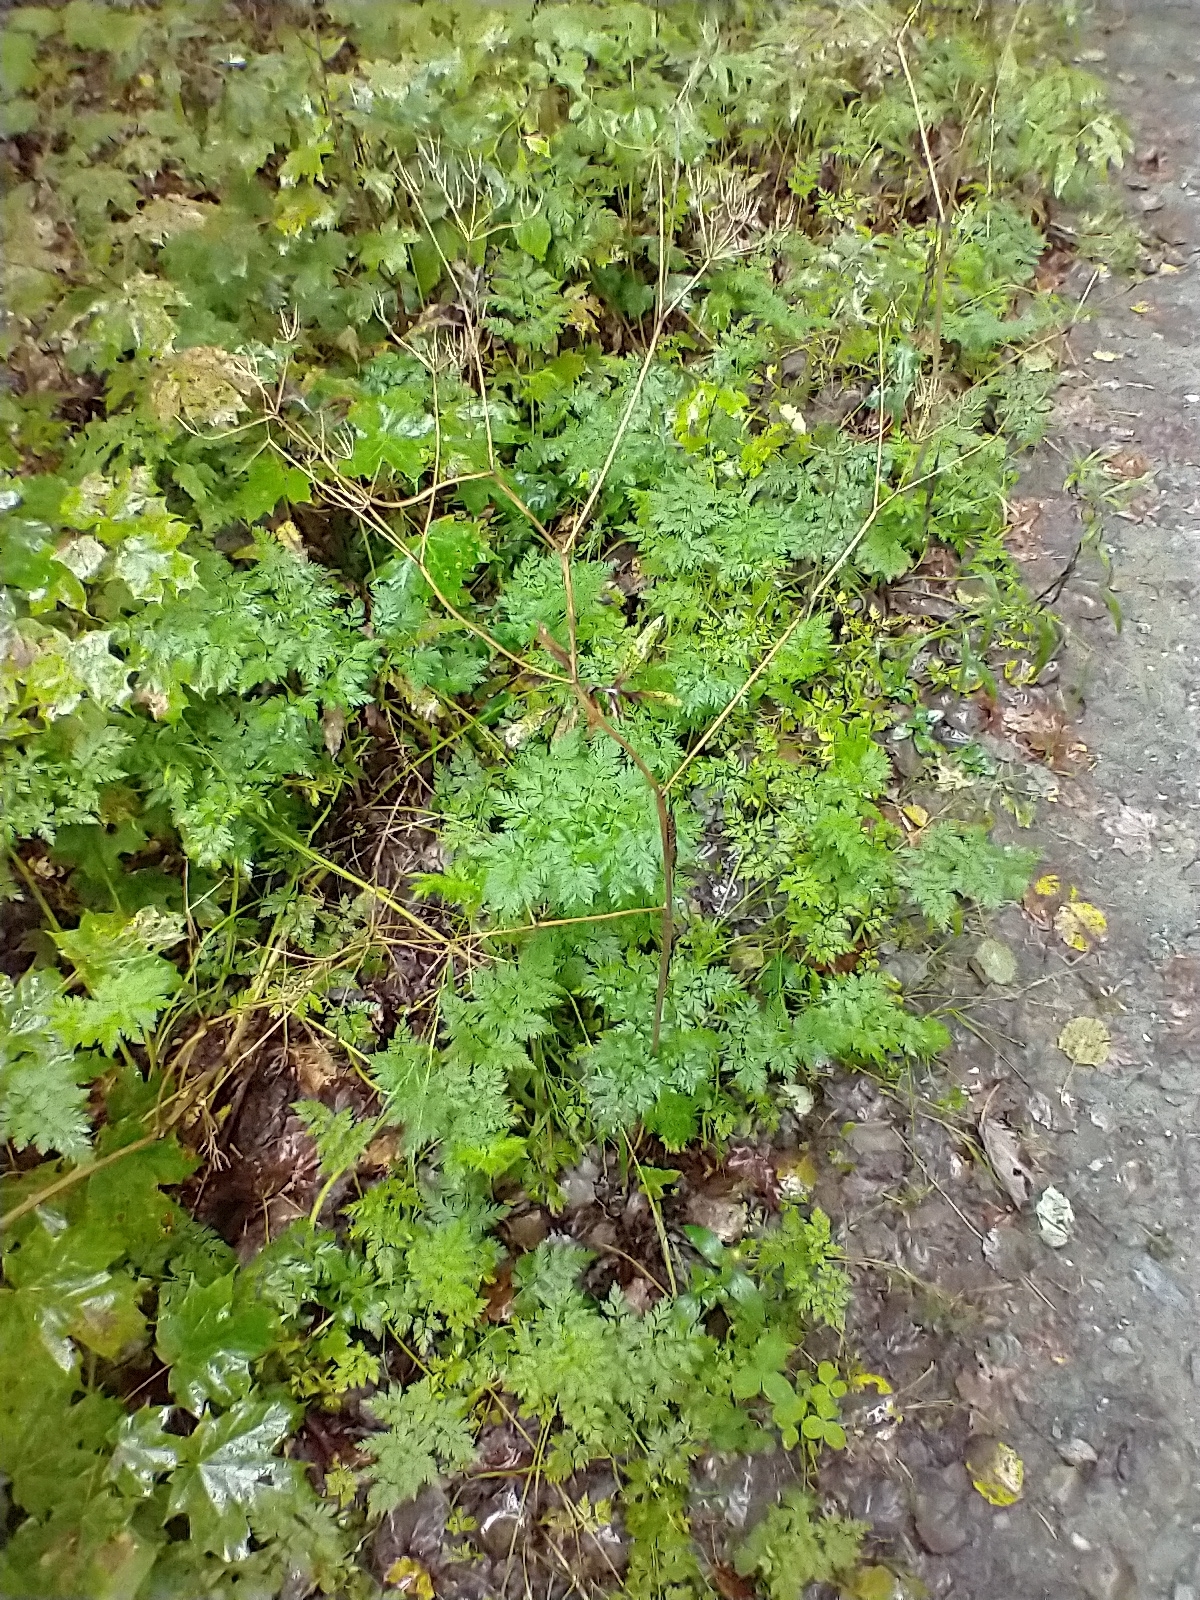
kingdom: Plantae
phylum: Tracheophyta
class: Magnoliopsida
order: Apiales
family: Apiaceae
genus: Anthriscus
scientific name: Anthriscus sylvestris
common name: Cow parsley
